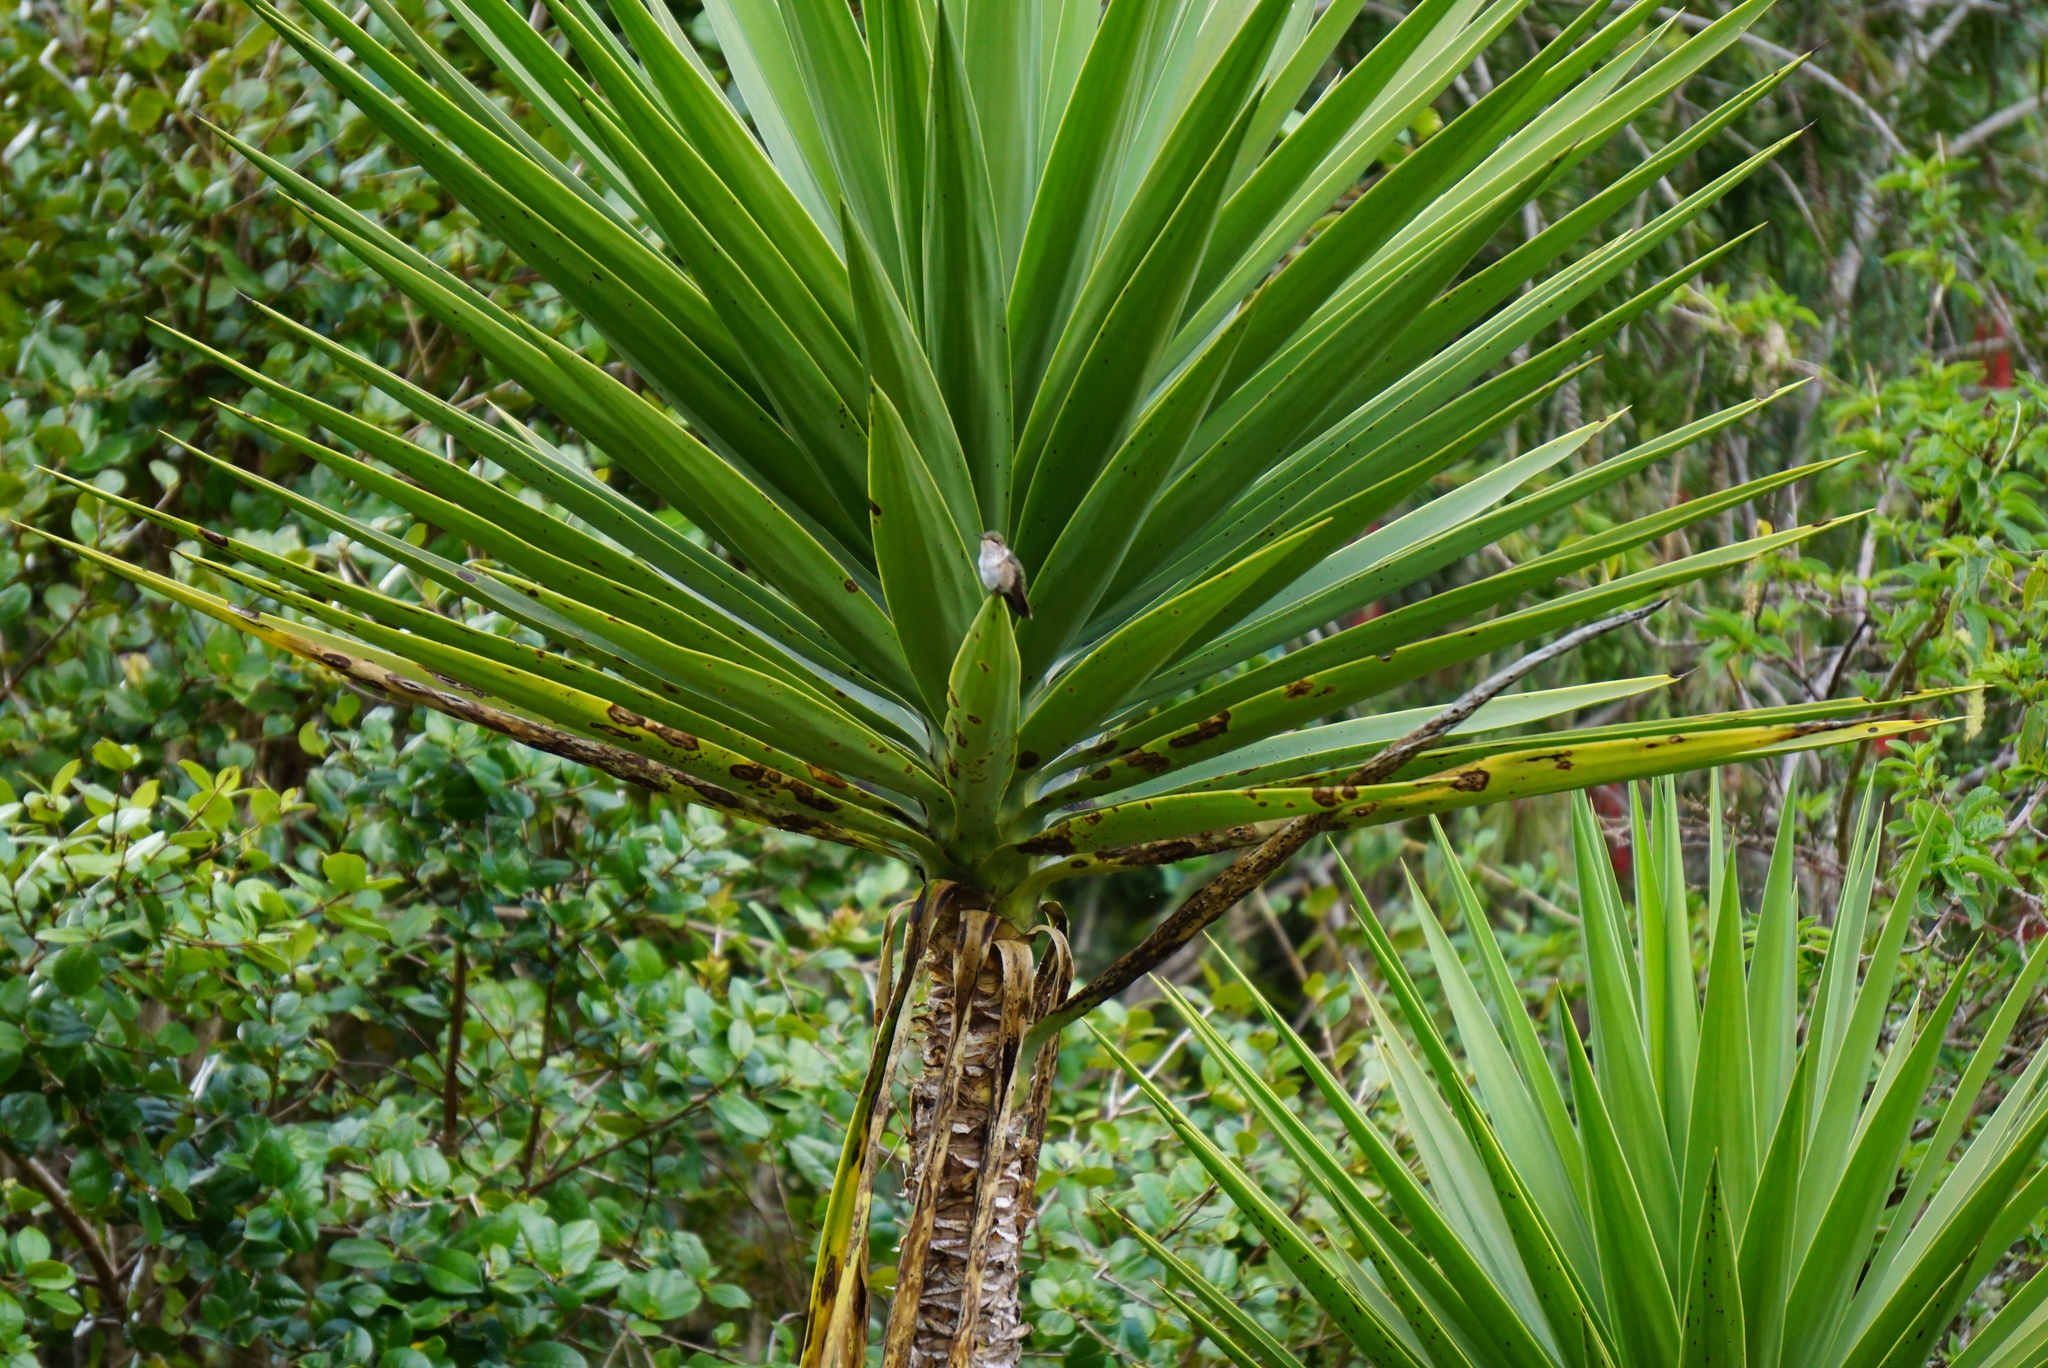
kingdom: Plantae
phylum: Tracheophyta
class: Liliopsida
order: Asparagales
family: Asparagaceae
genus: Yucca
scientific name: Yucca gigantea
